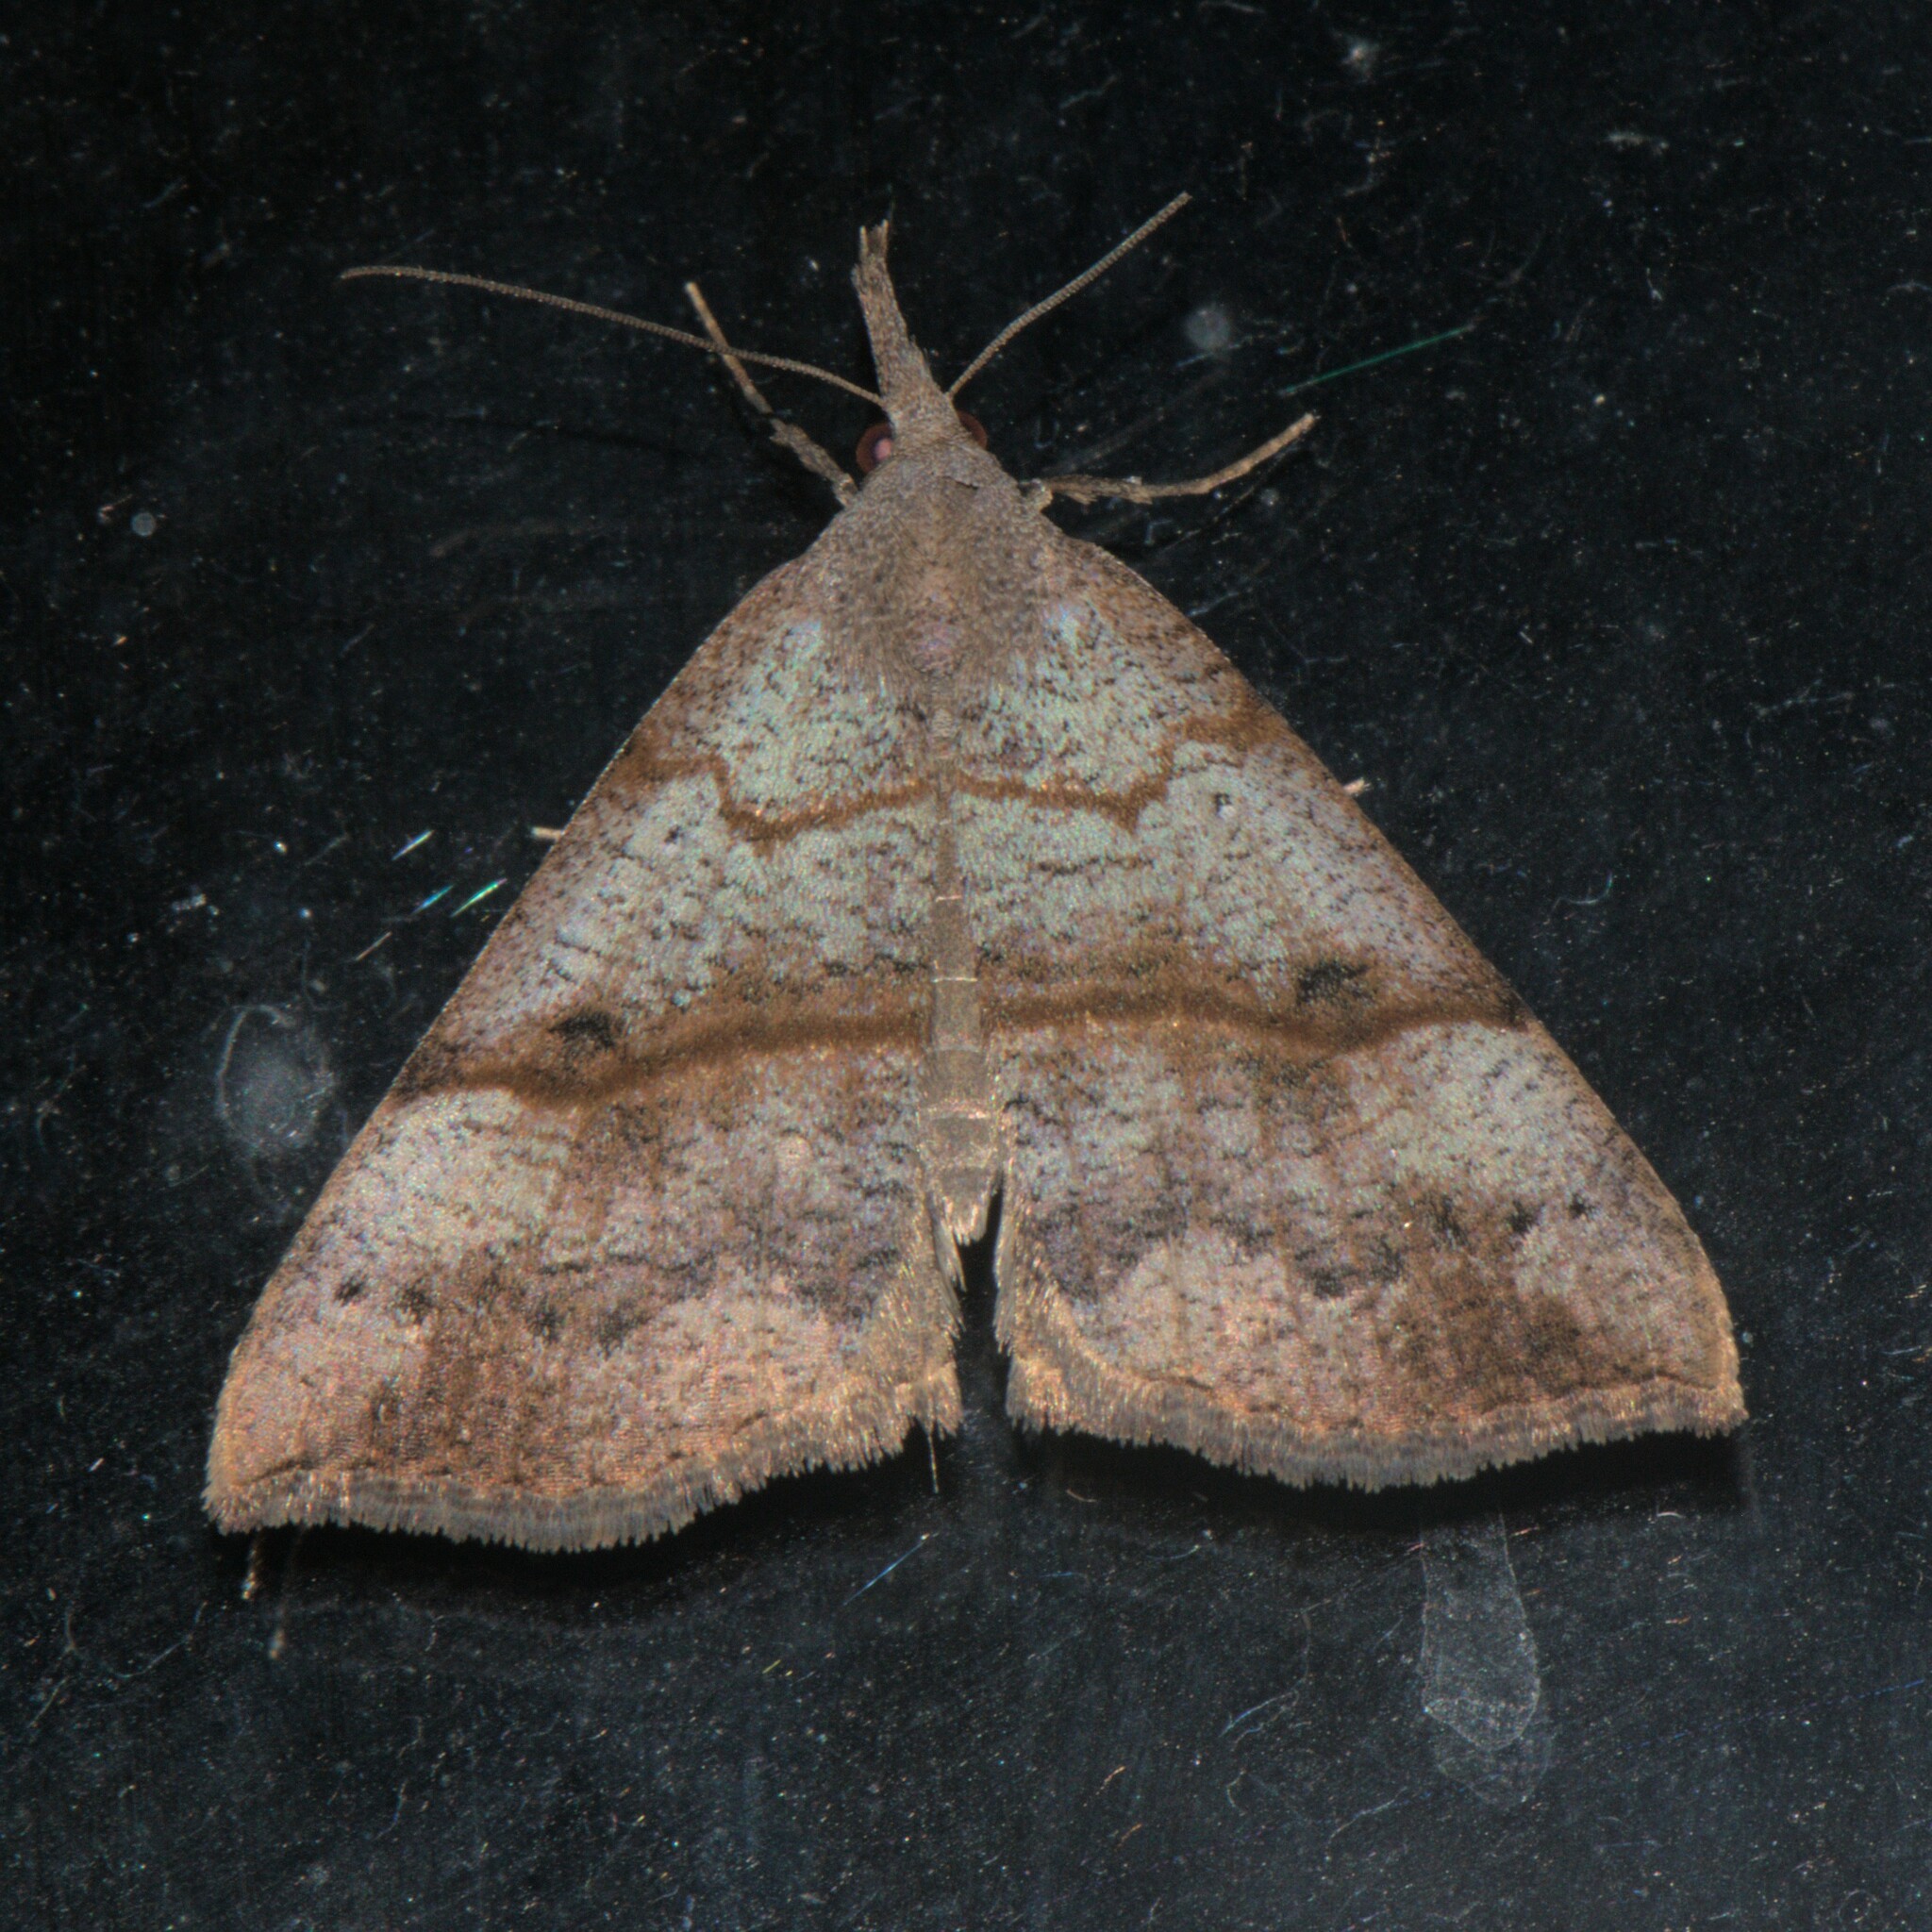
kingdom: Animalia
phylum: Arthropoda
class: Insecta
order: Lepidoptera
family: Erebidae
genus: Hypena
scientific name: Hypena proboscidalis
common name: Snout
